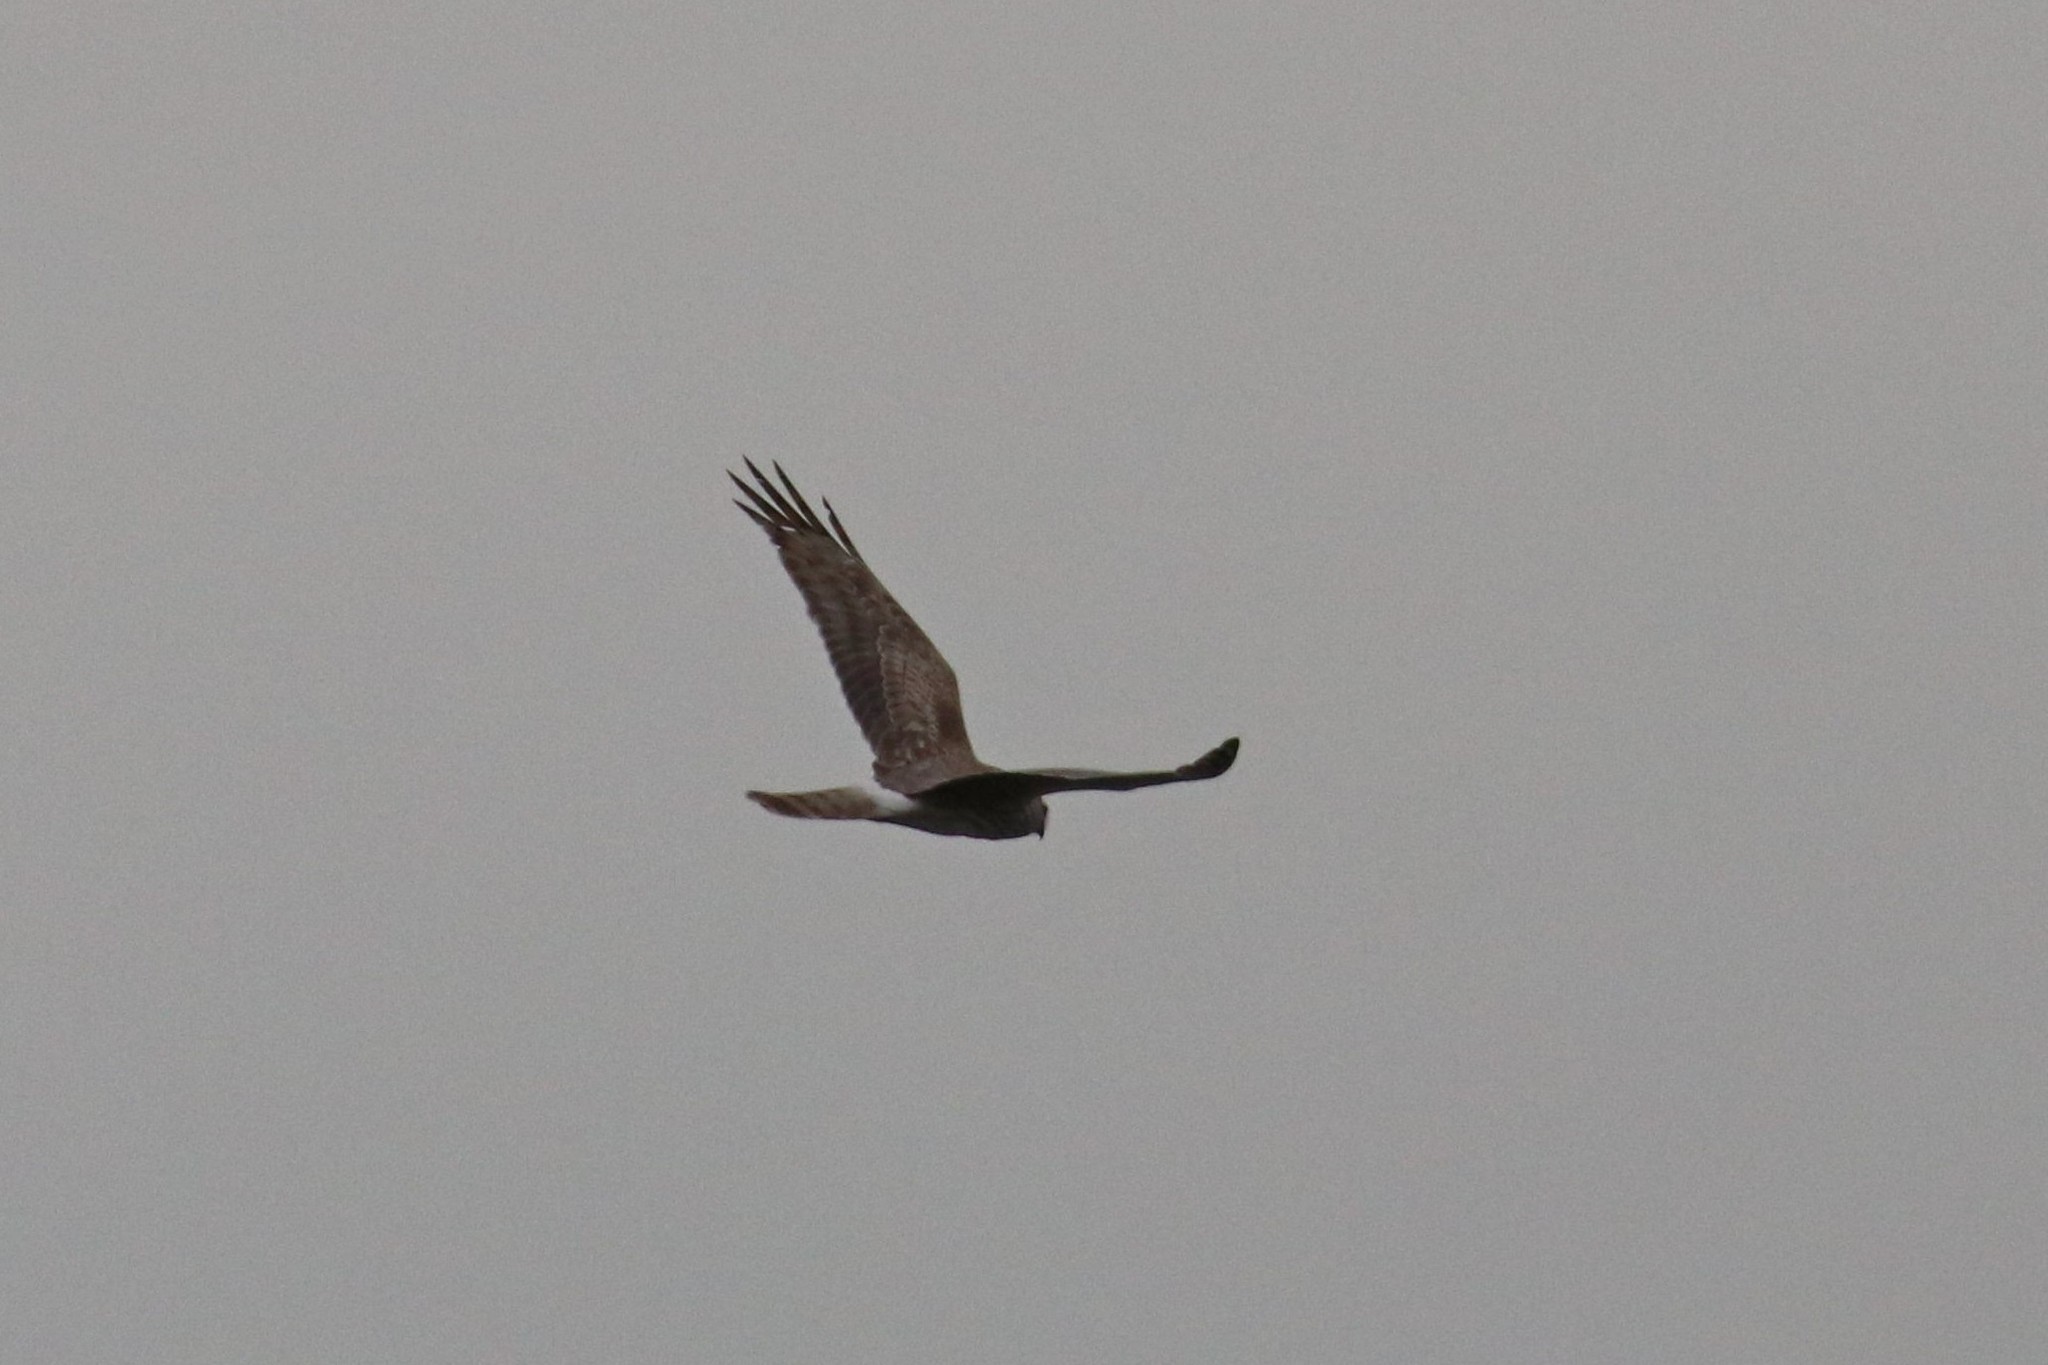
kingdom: Animalia
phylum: Chordata
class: Aves
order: Accipitriformes
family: Accipitridae
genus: Circus
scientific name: Circus cyaneus
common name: Hen harrier
